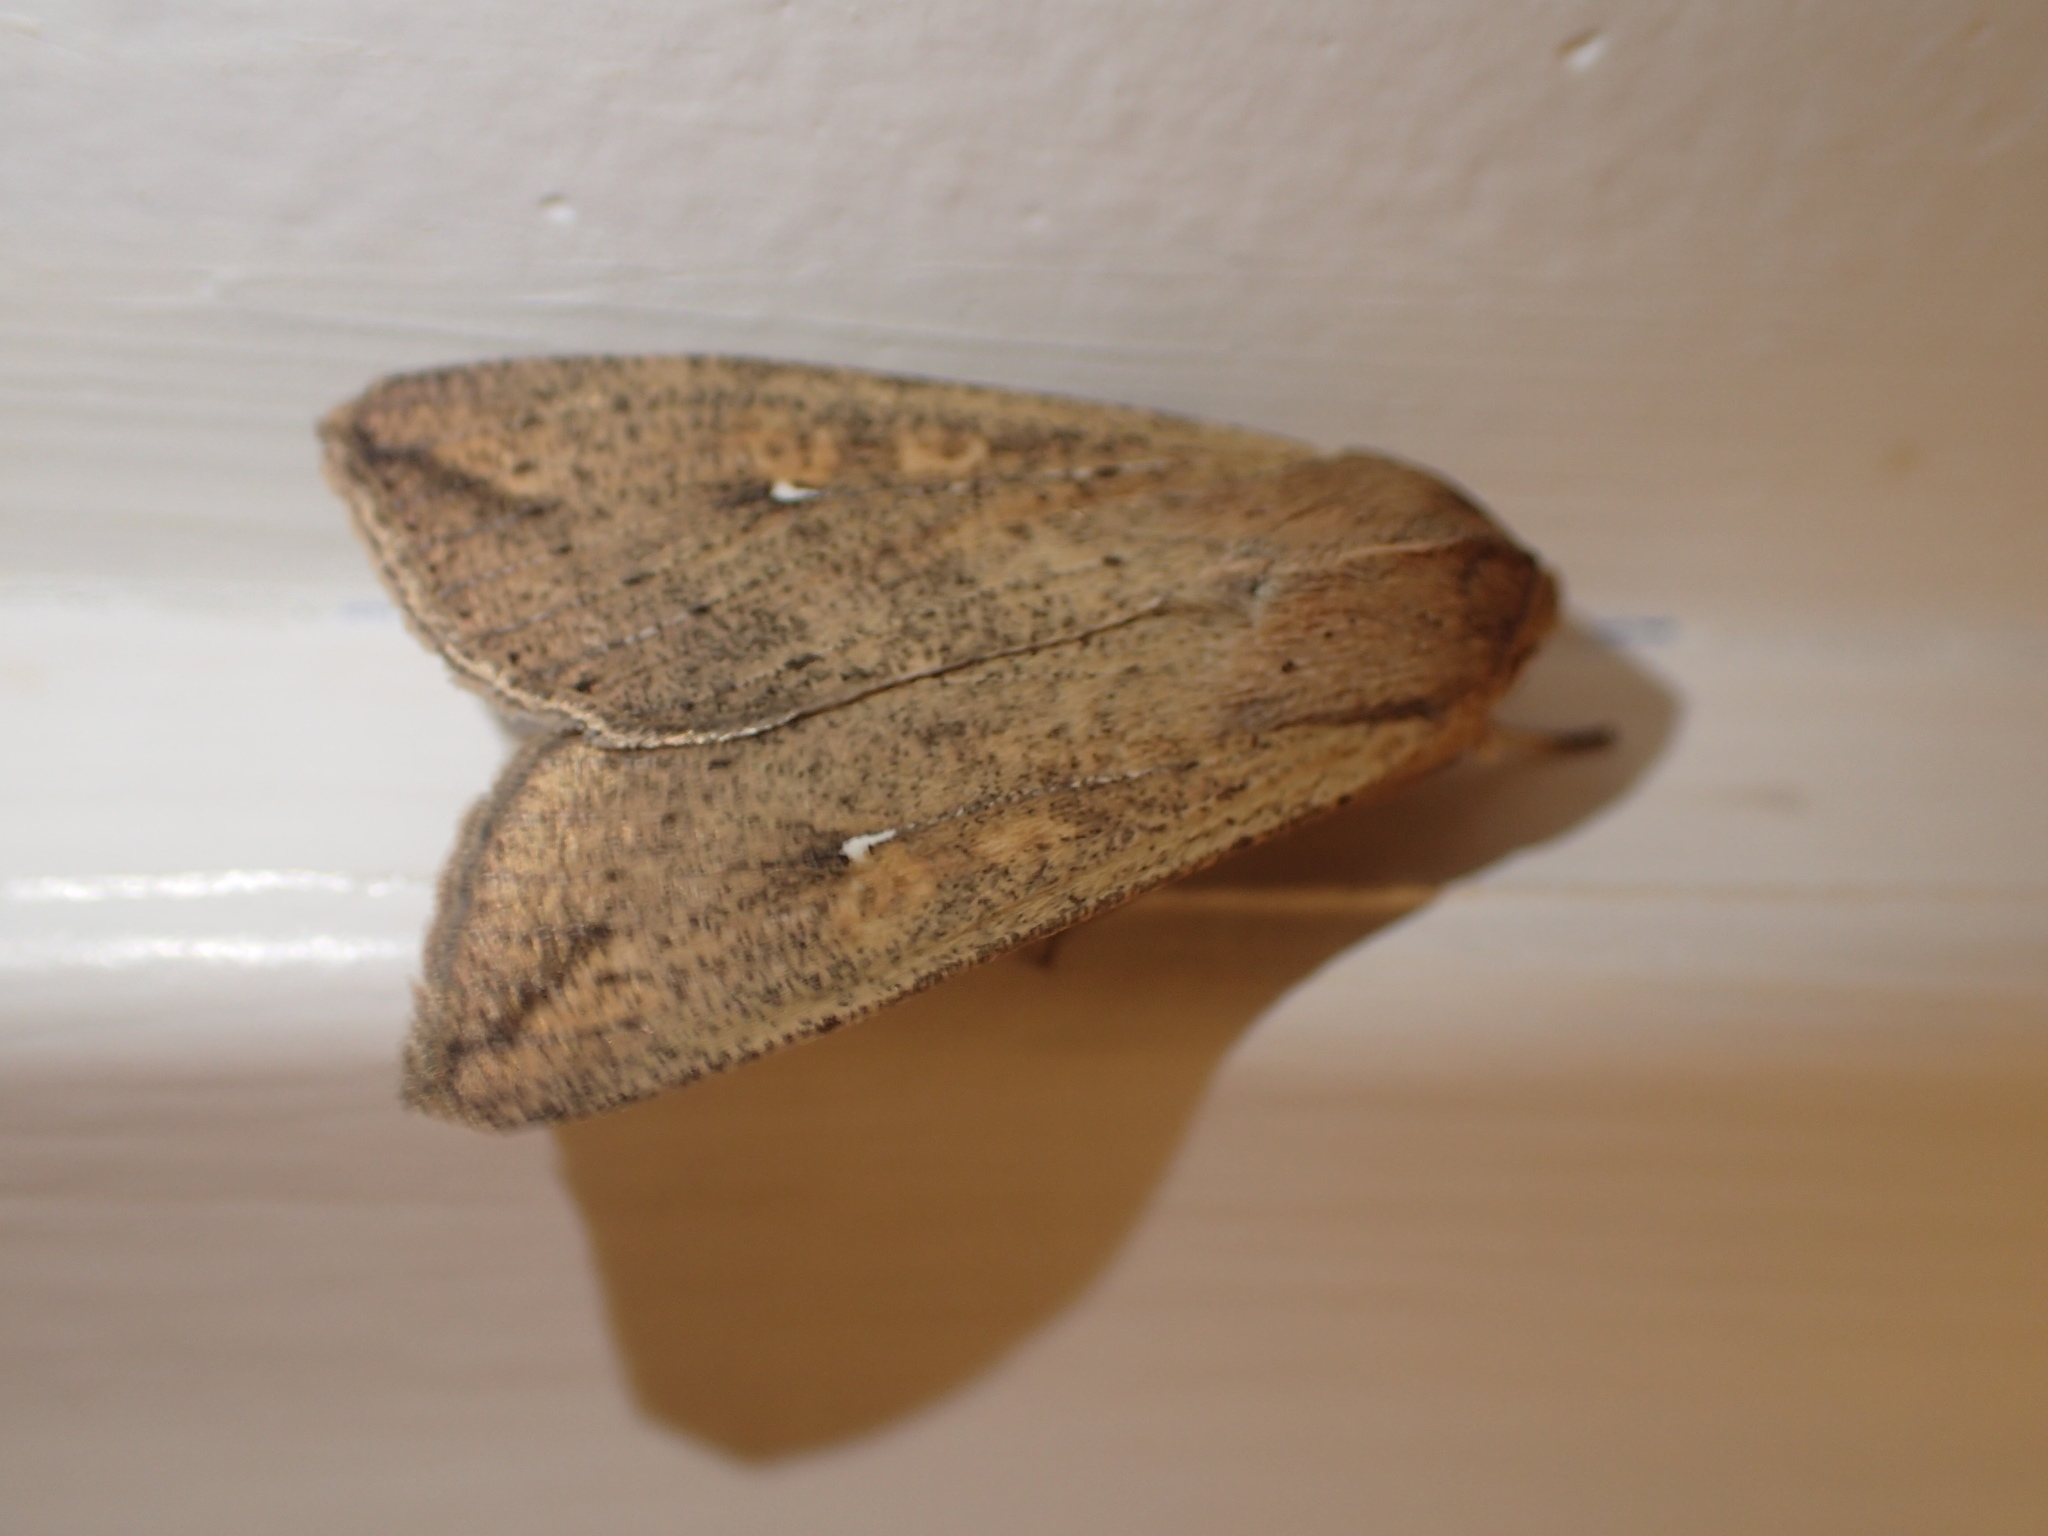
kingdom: Animalia
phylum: Arthropoda
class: Insecta
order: Lepidoptera
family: Noctuidae
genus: Mythimna
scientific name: Mythimna unipuncta
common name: White-speck
